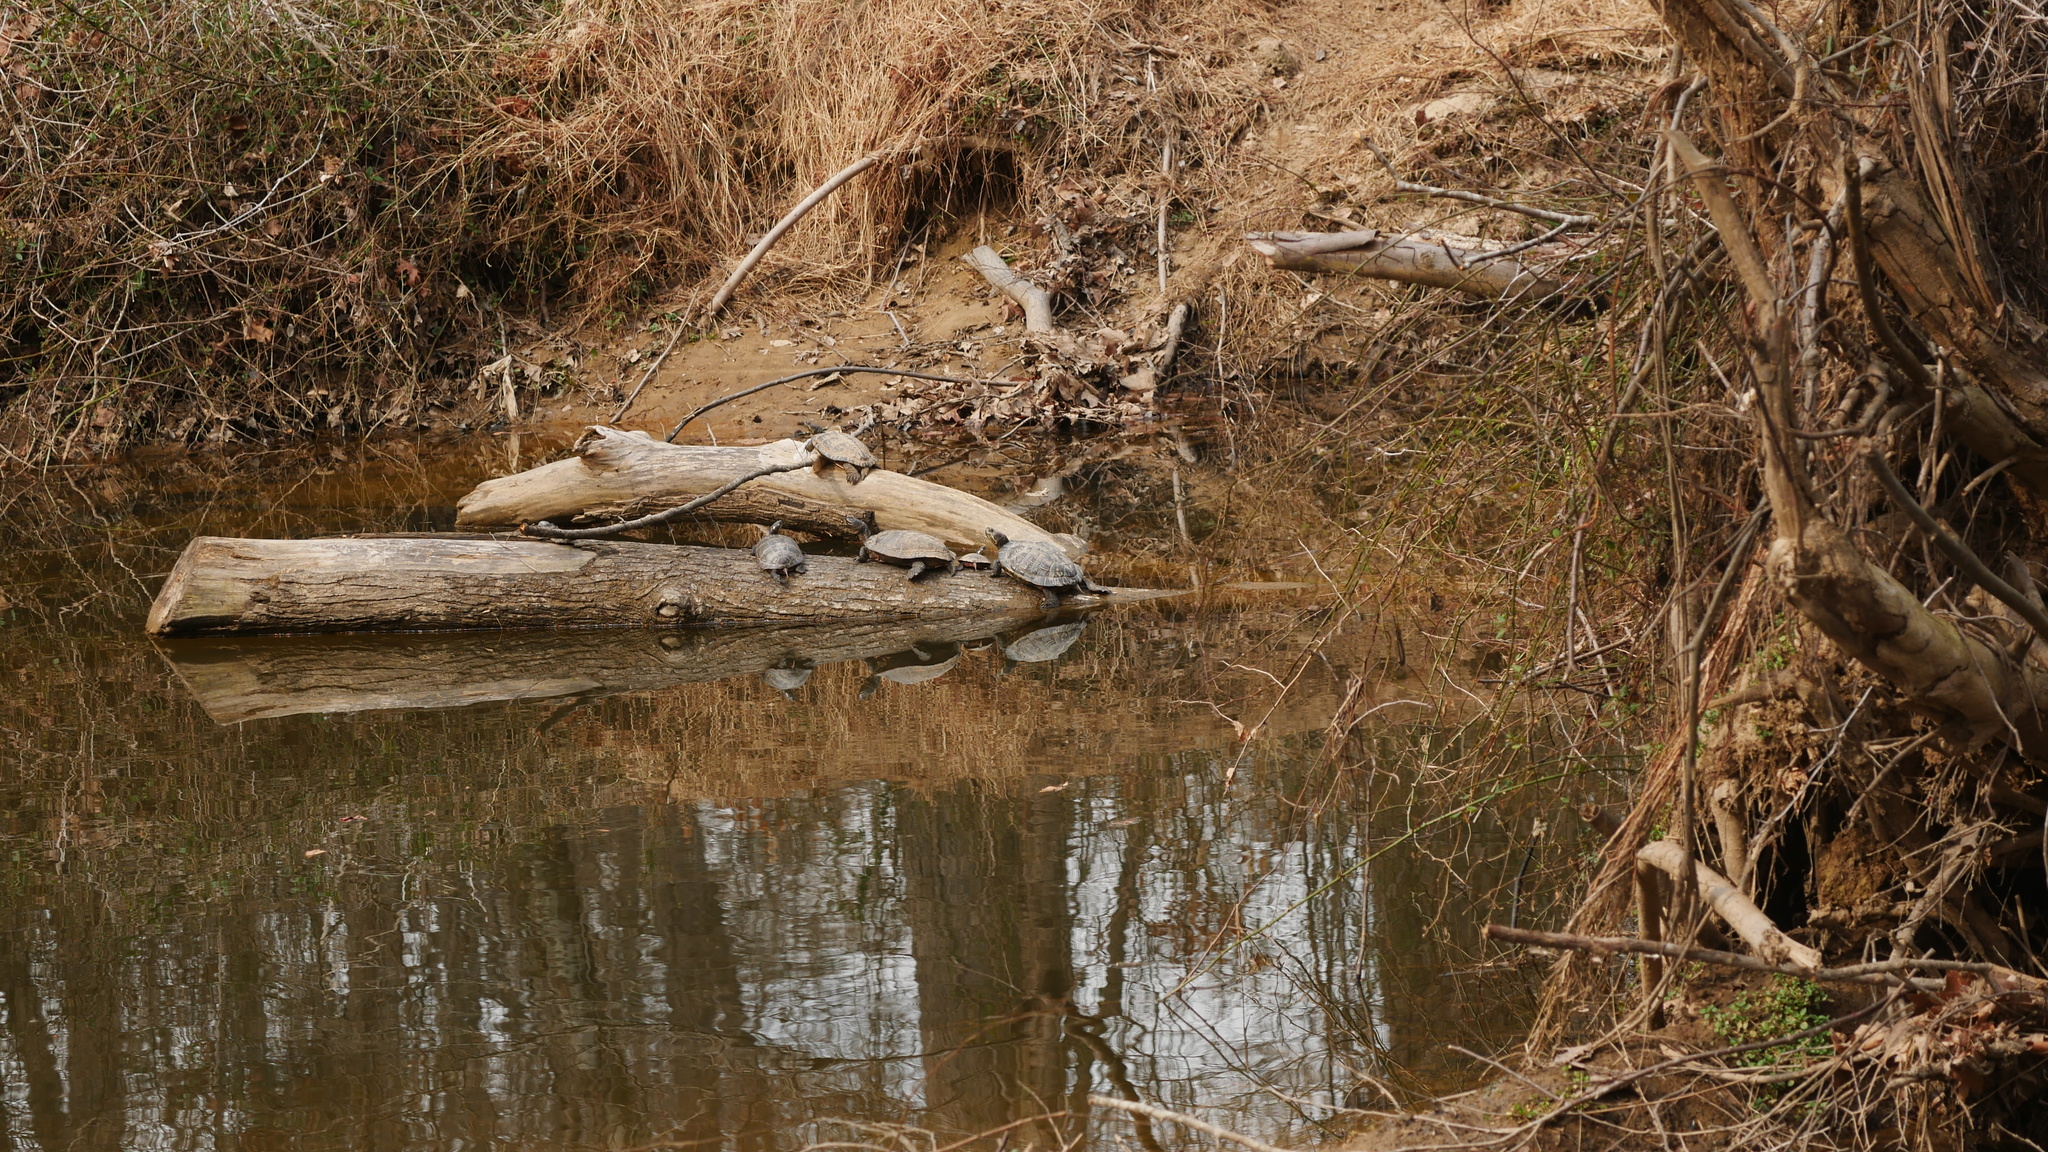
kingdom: Animalia
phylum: Chordata
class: Testudines
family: Emydidae
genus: Trachemys
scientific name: Trachemys scripta
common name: Slider
